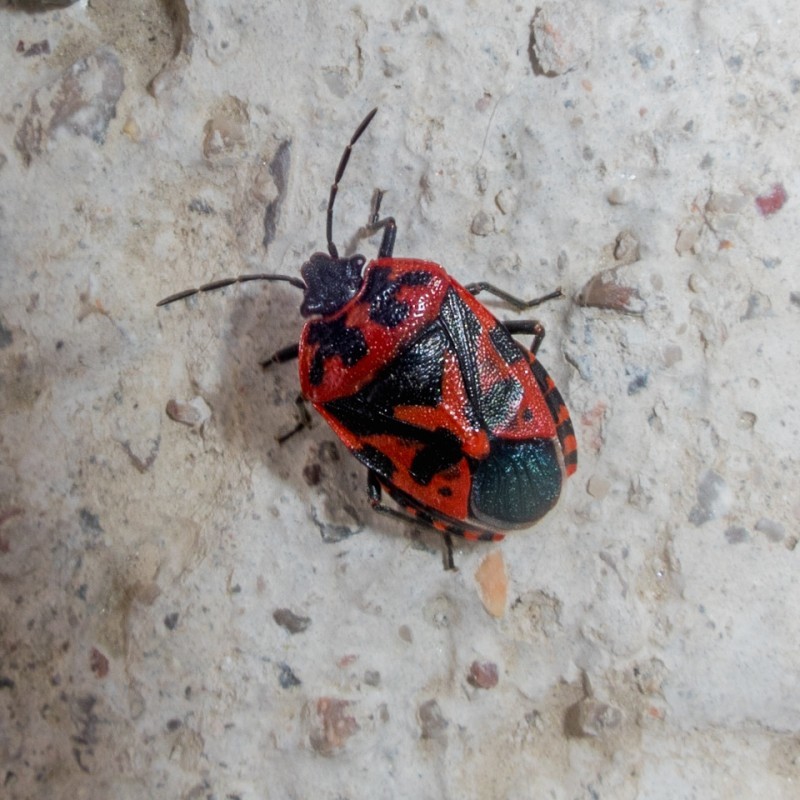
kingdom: Animalia
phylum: Arthropoda
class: Insecta
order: Hemiptera
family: Pentatomidae
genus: Eurydema
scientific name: Eurydema ventralis
